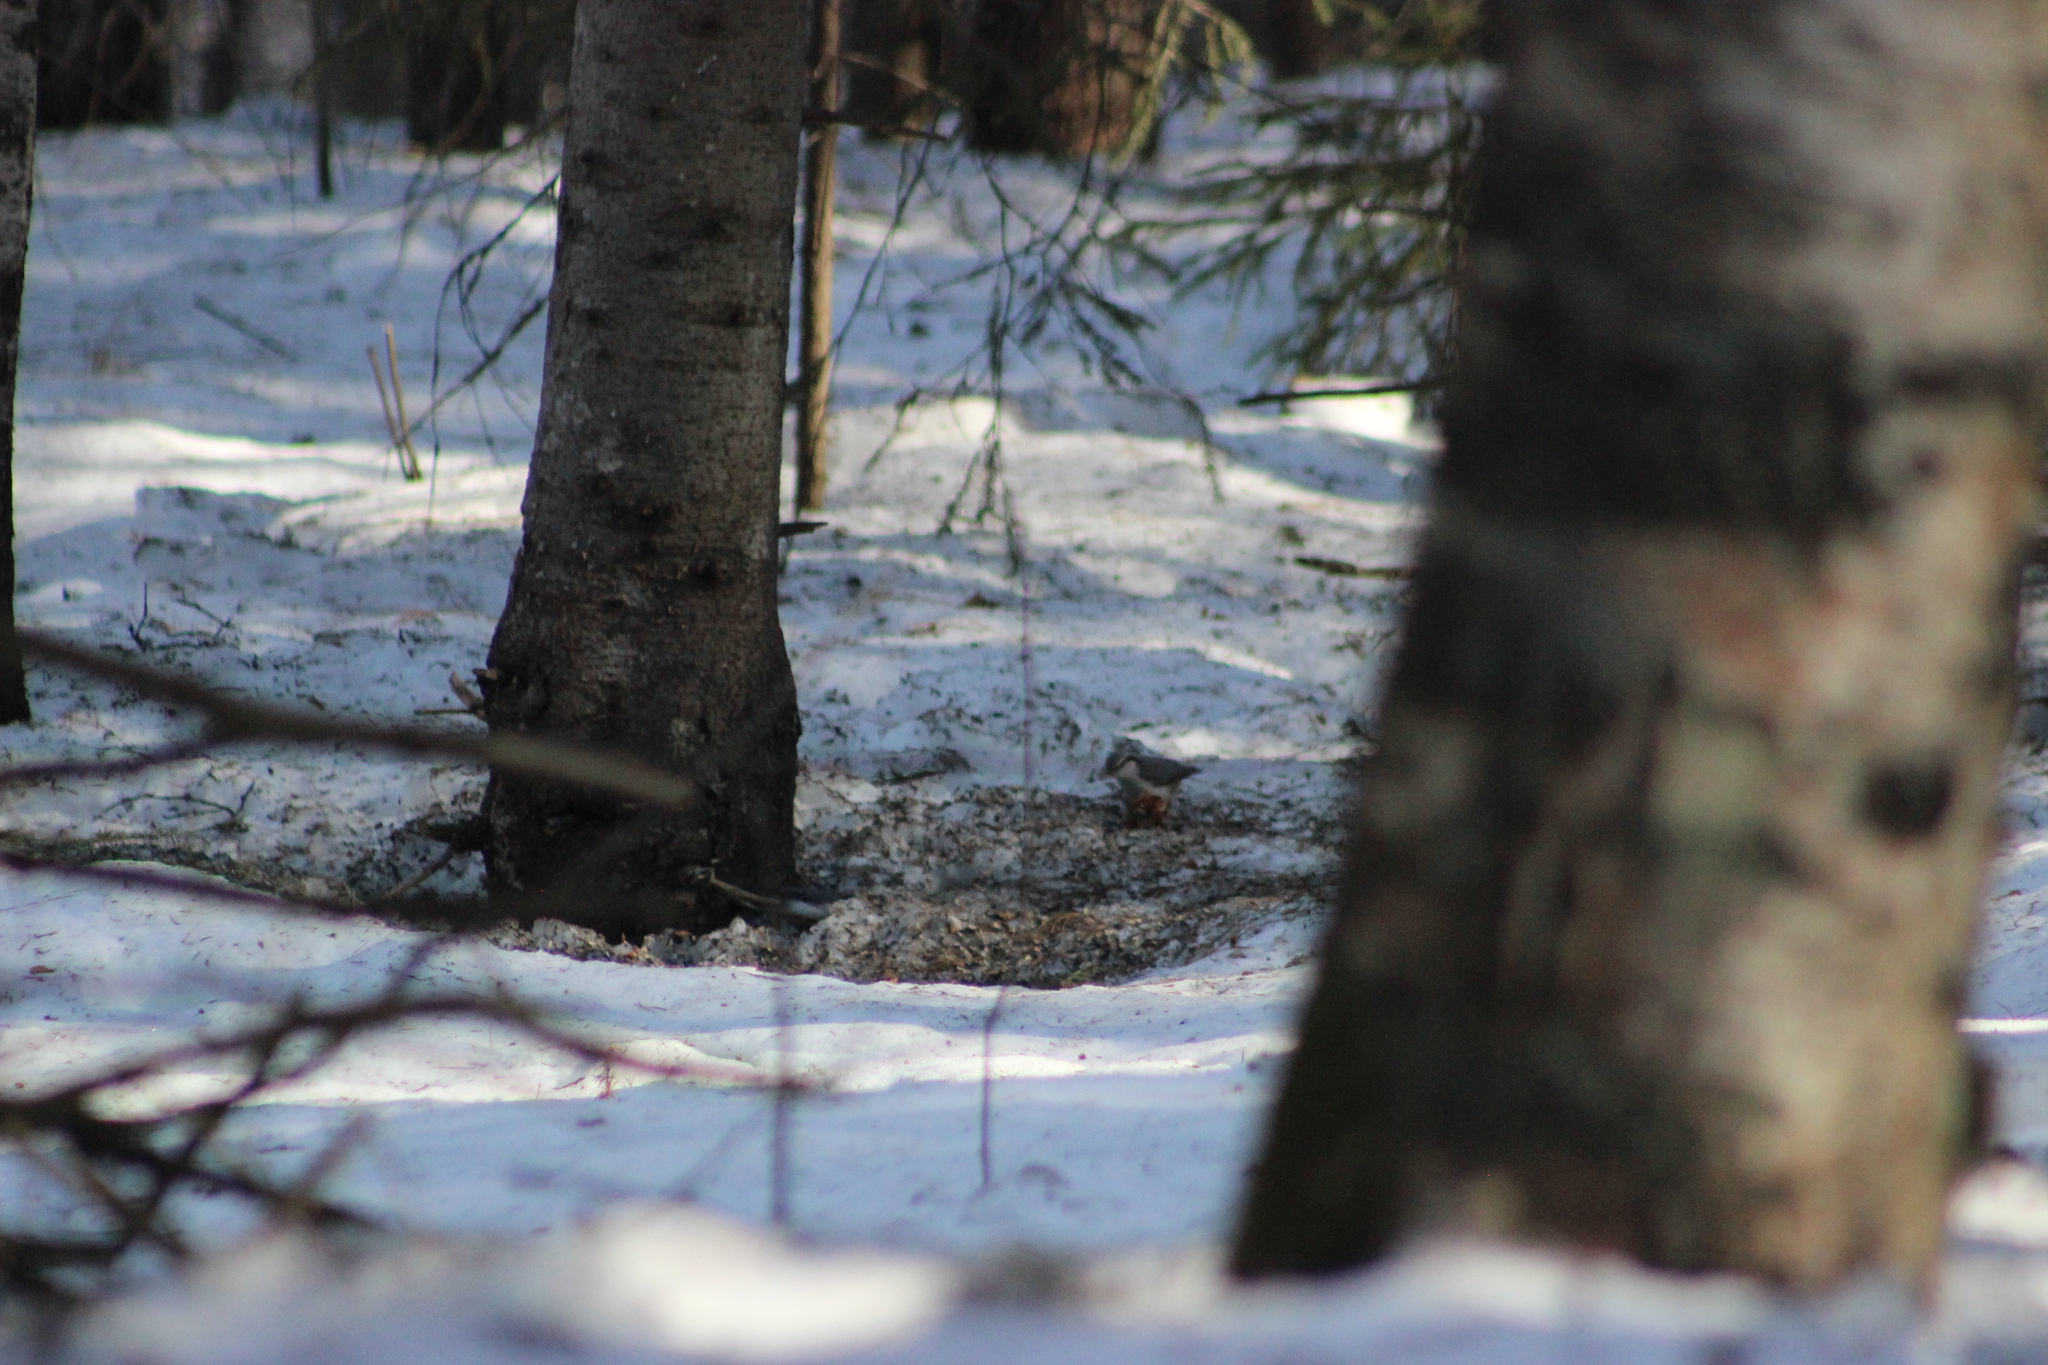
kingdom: Animalia
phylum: Chordata
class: Aves
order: Passeriformes
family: Sittidae
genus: Sitta
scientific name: Sitta europaea
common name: Eurasian nuthatch
